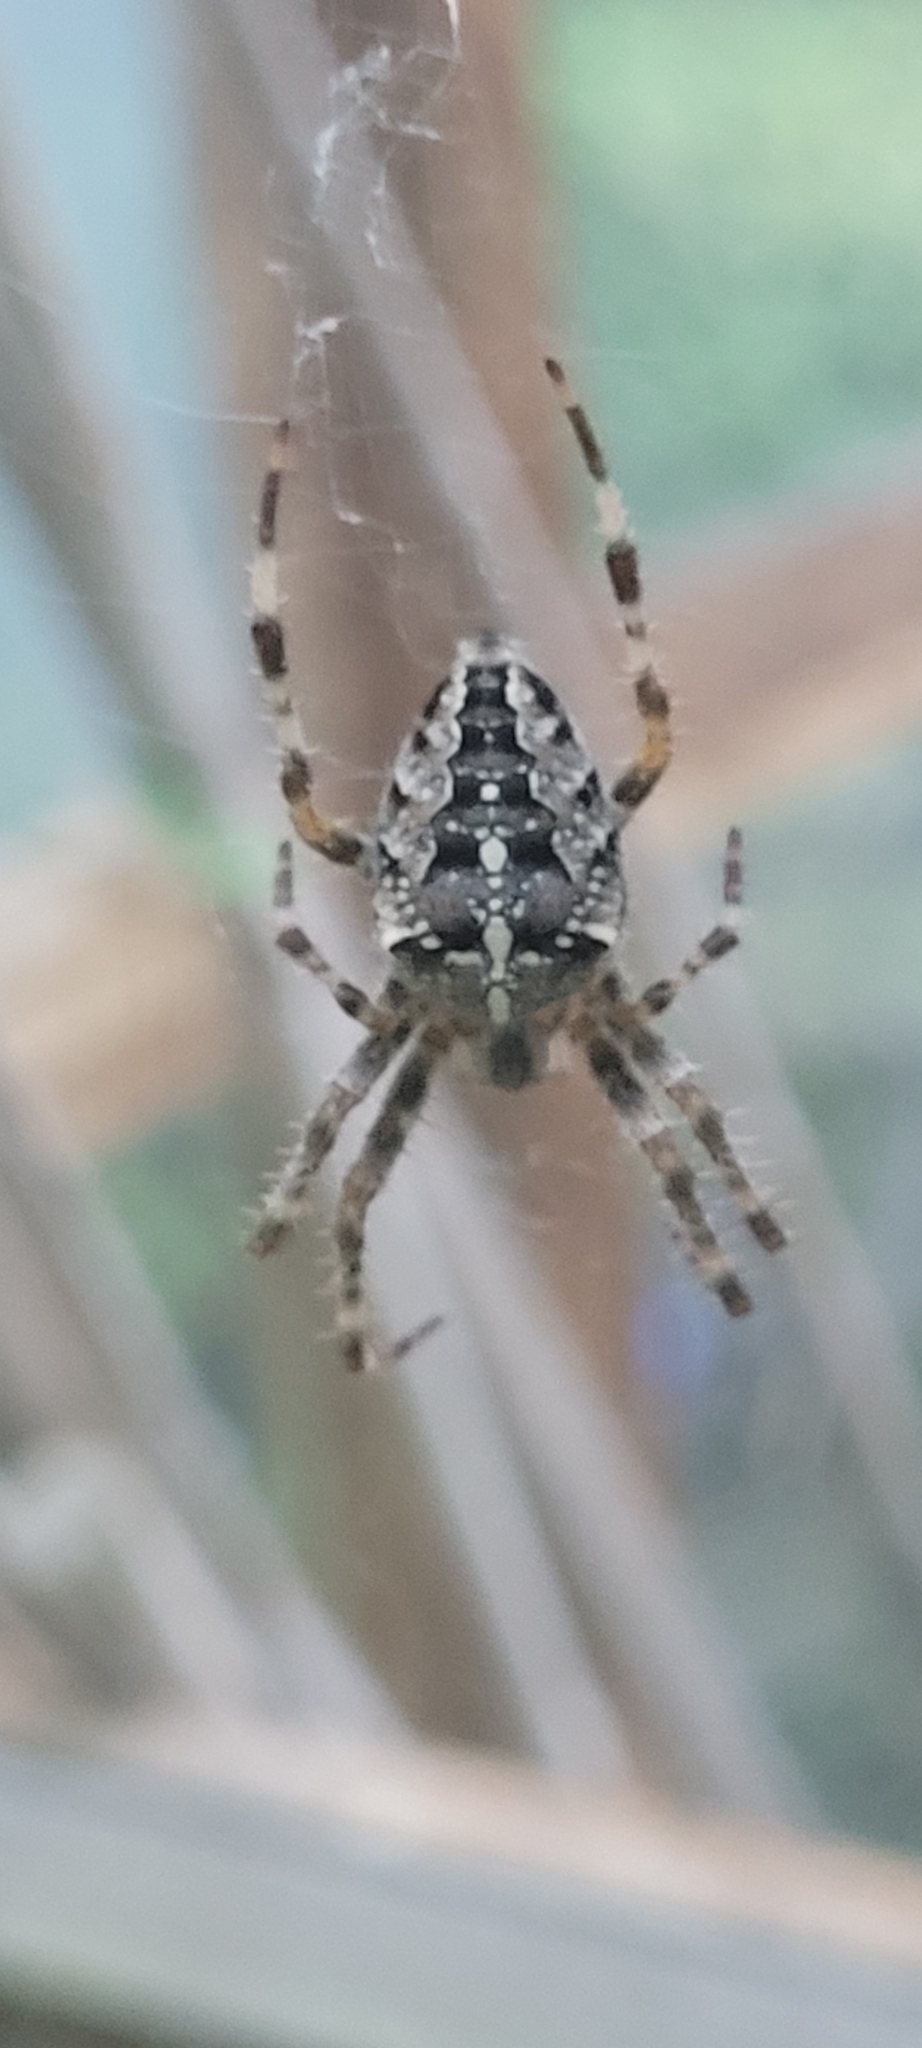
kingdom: Animalia
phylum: Arthropoda
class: Arachnida
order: Araneae
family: Araneidae
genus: Araneus
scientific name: Araneus diadematus
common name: Cross orbweaver
